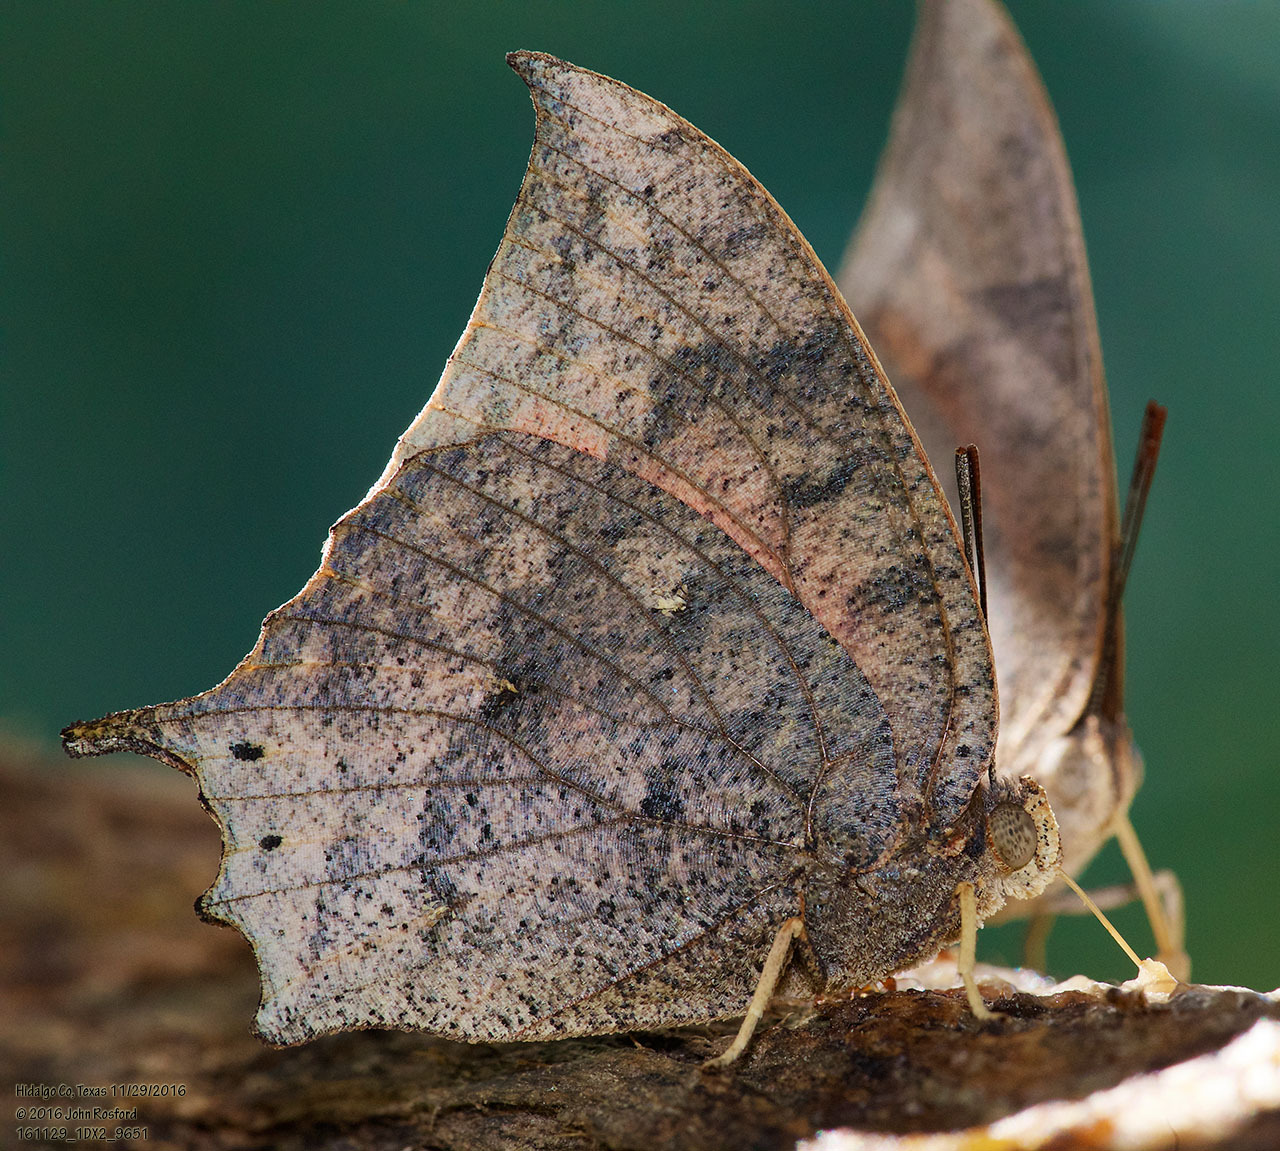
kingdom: Animalia
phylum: Arthropoda
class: Insecta
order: Lepidoptera
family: Nymphalidae
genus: Anaea
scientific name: Anaea aidea
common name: Tropical leafwing
